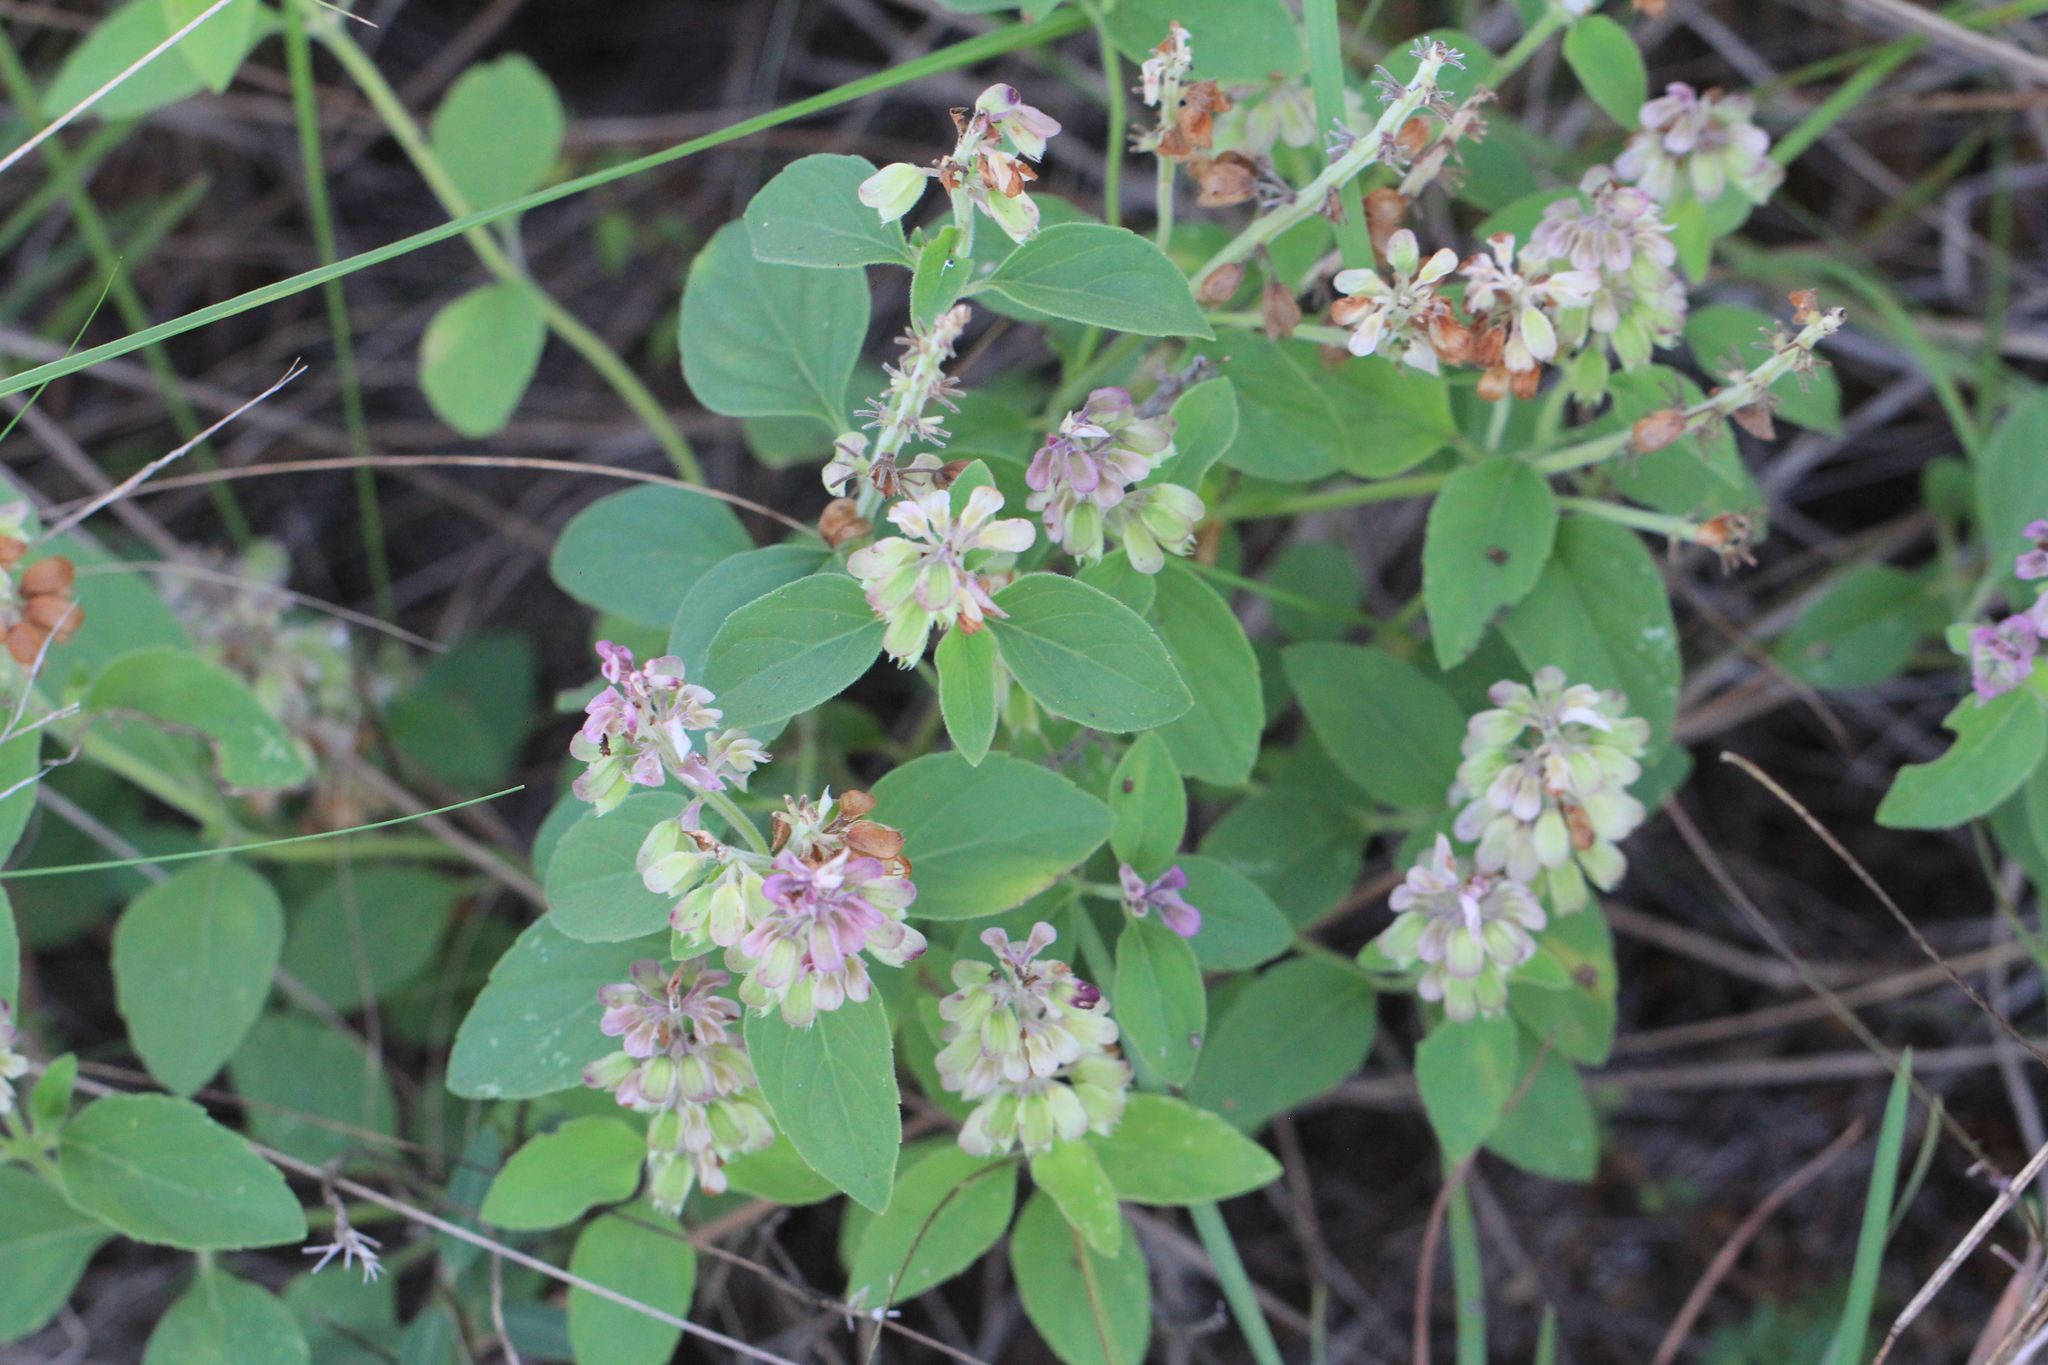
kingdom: Plantae
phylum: Tracheophyta
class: Magnoliopsida
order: Lamiales
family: Lamiaceae
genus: Ocimum
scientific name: Ocimum ovatum
